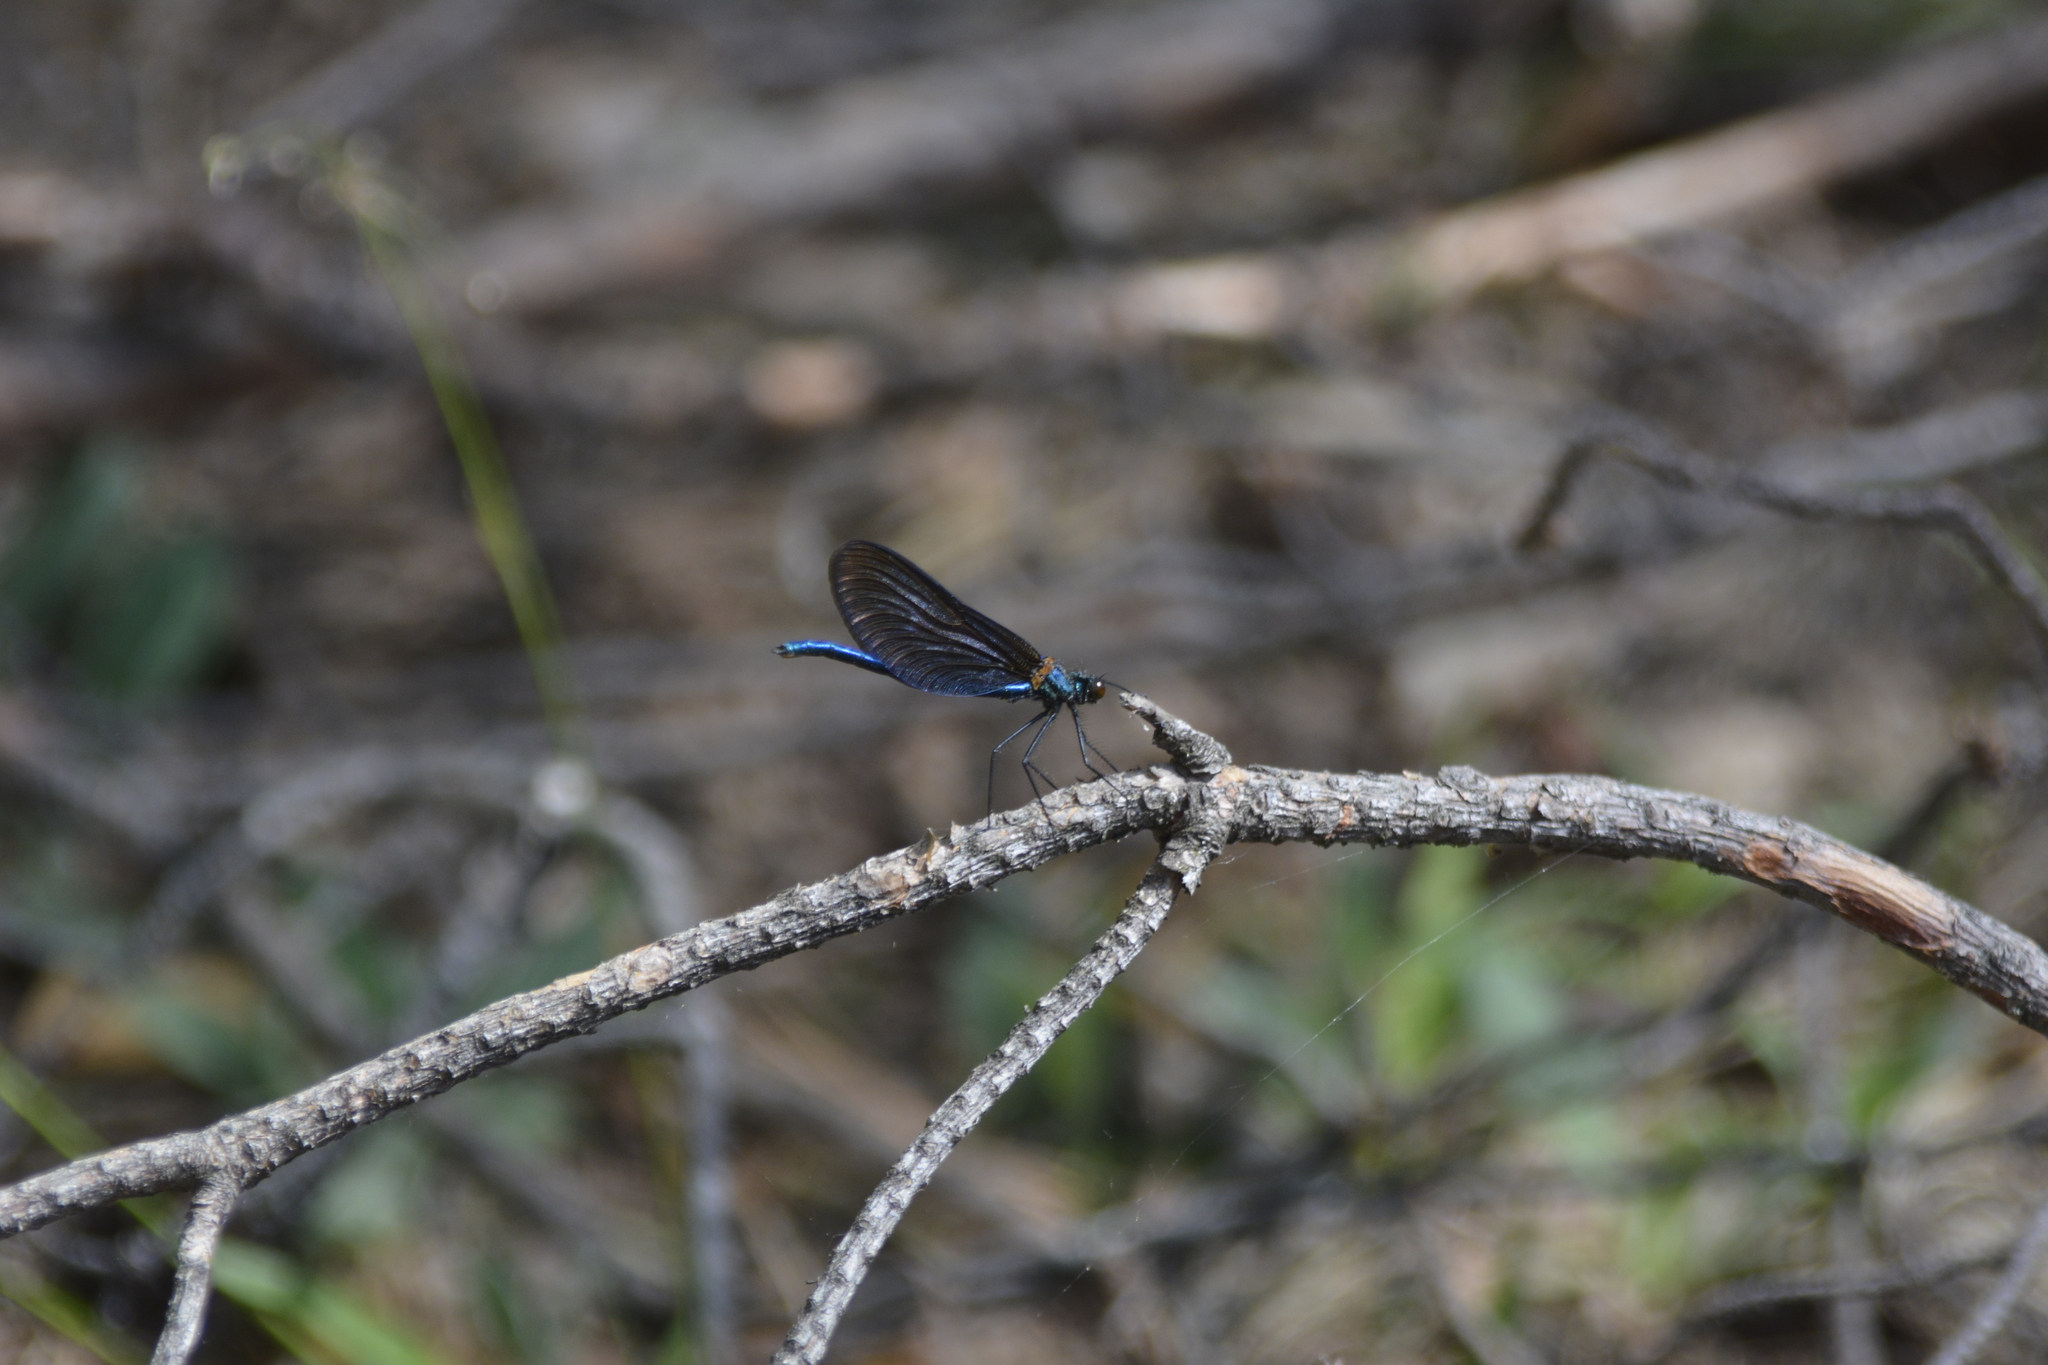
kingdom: Animalia
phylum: Arthropoda
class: Insecta
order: Odonata
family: Calopterygidae
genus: Calopteryx
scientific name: Calopteryx virgo
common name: Beautiful demoiselle
